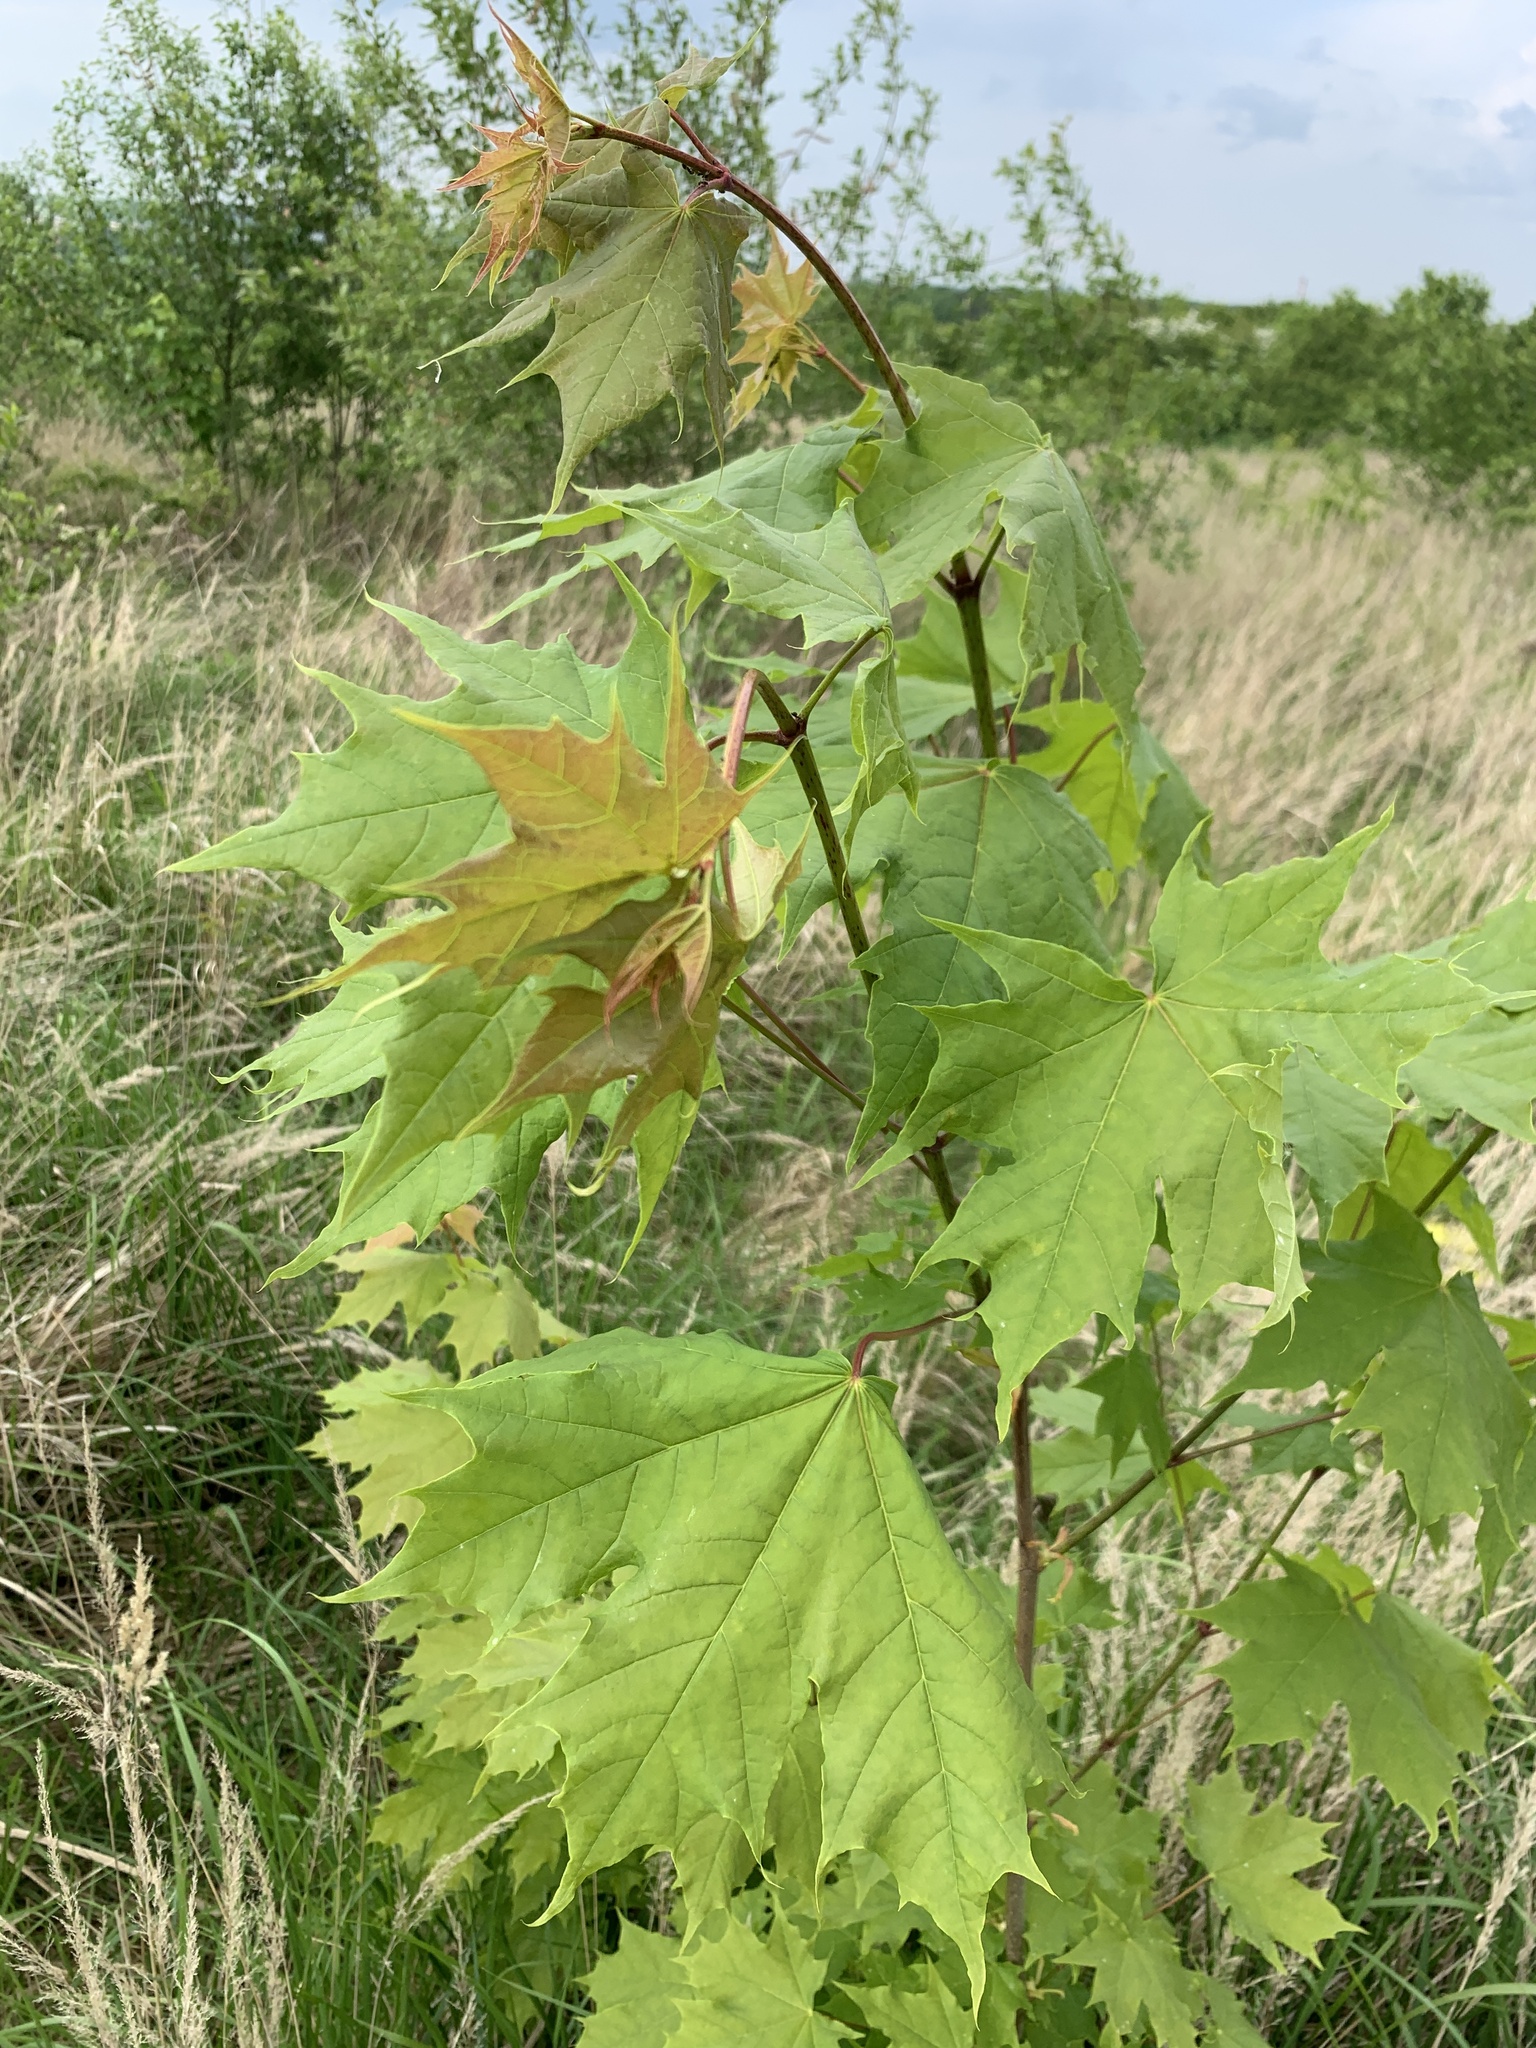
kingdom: Plantae
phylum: Tracheophyta
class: Magnoliopsida
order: Sapindales
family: Sapindaceae
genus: Acer
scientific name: Acer platanoides
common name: Norway maple
